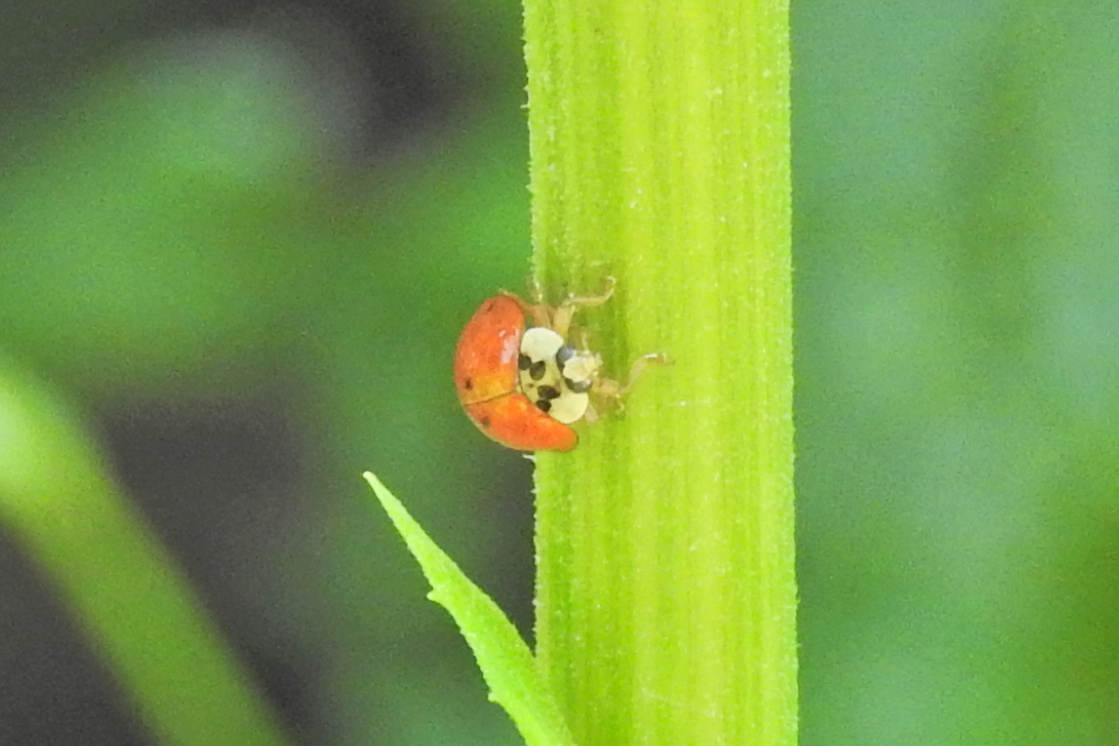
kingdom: Animalia
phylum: Arthropoda
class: Insecta
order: Coleoptera
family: Coccinellidae
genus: Harmonia
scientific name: Harmonia axyridis
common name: Harlequin ladybird
